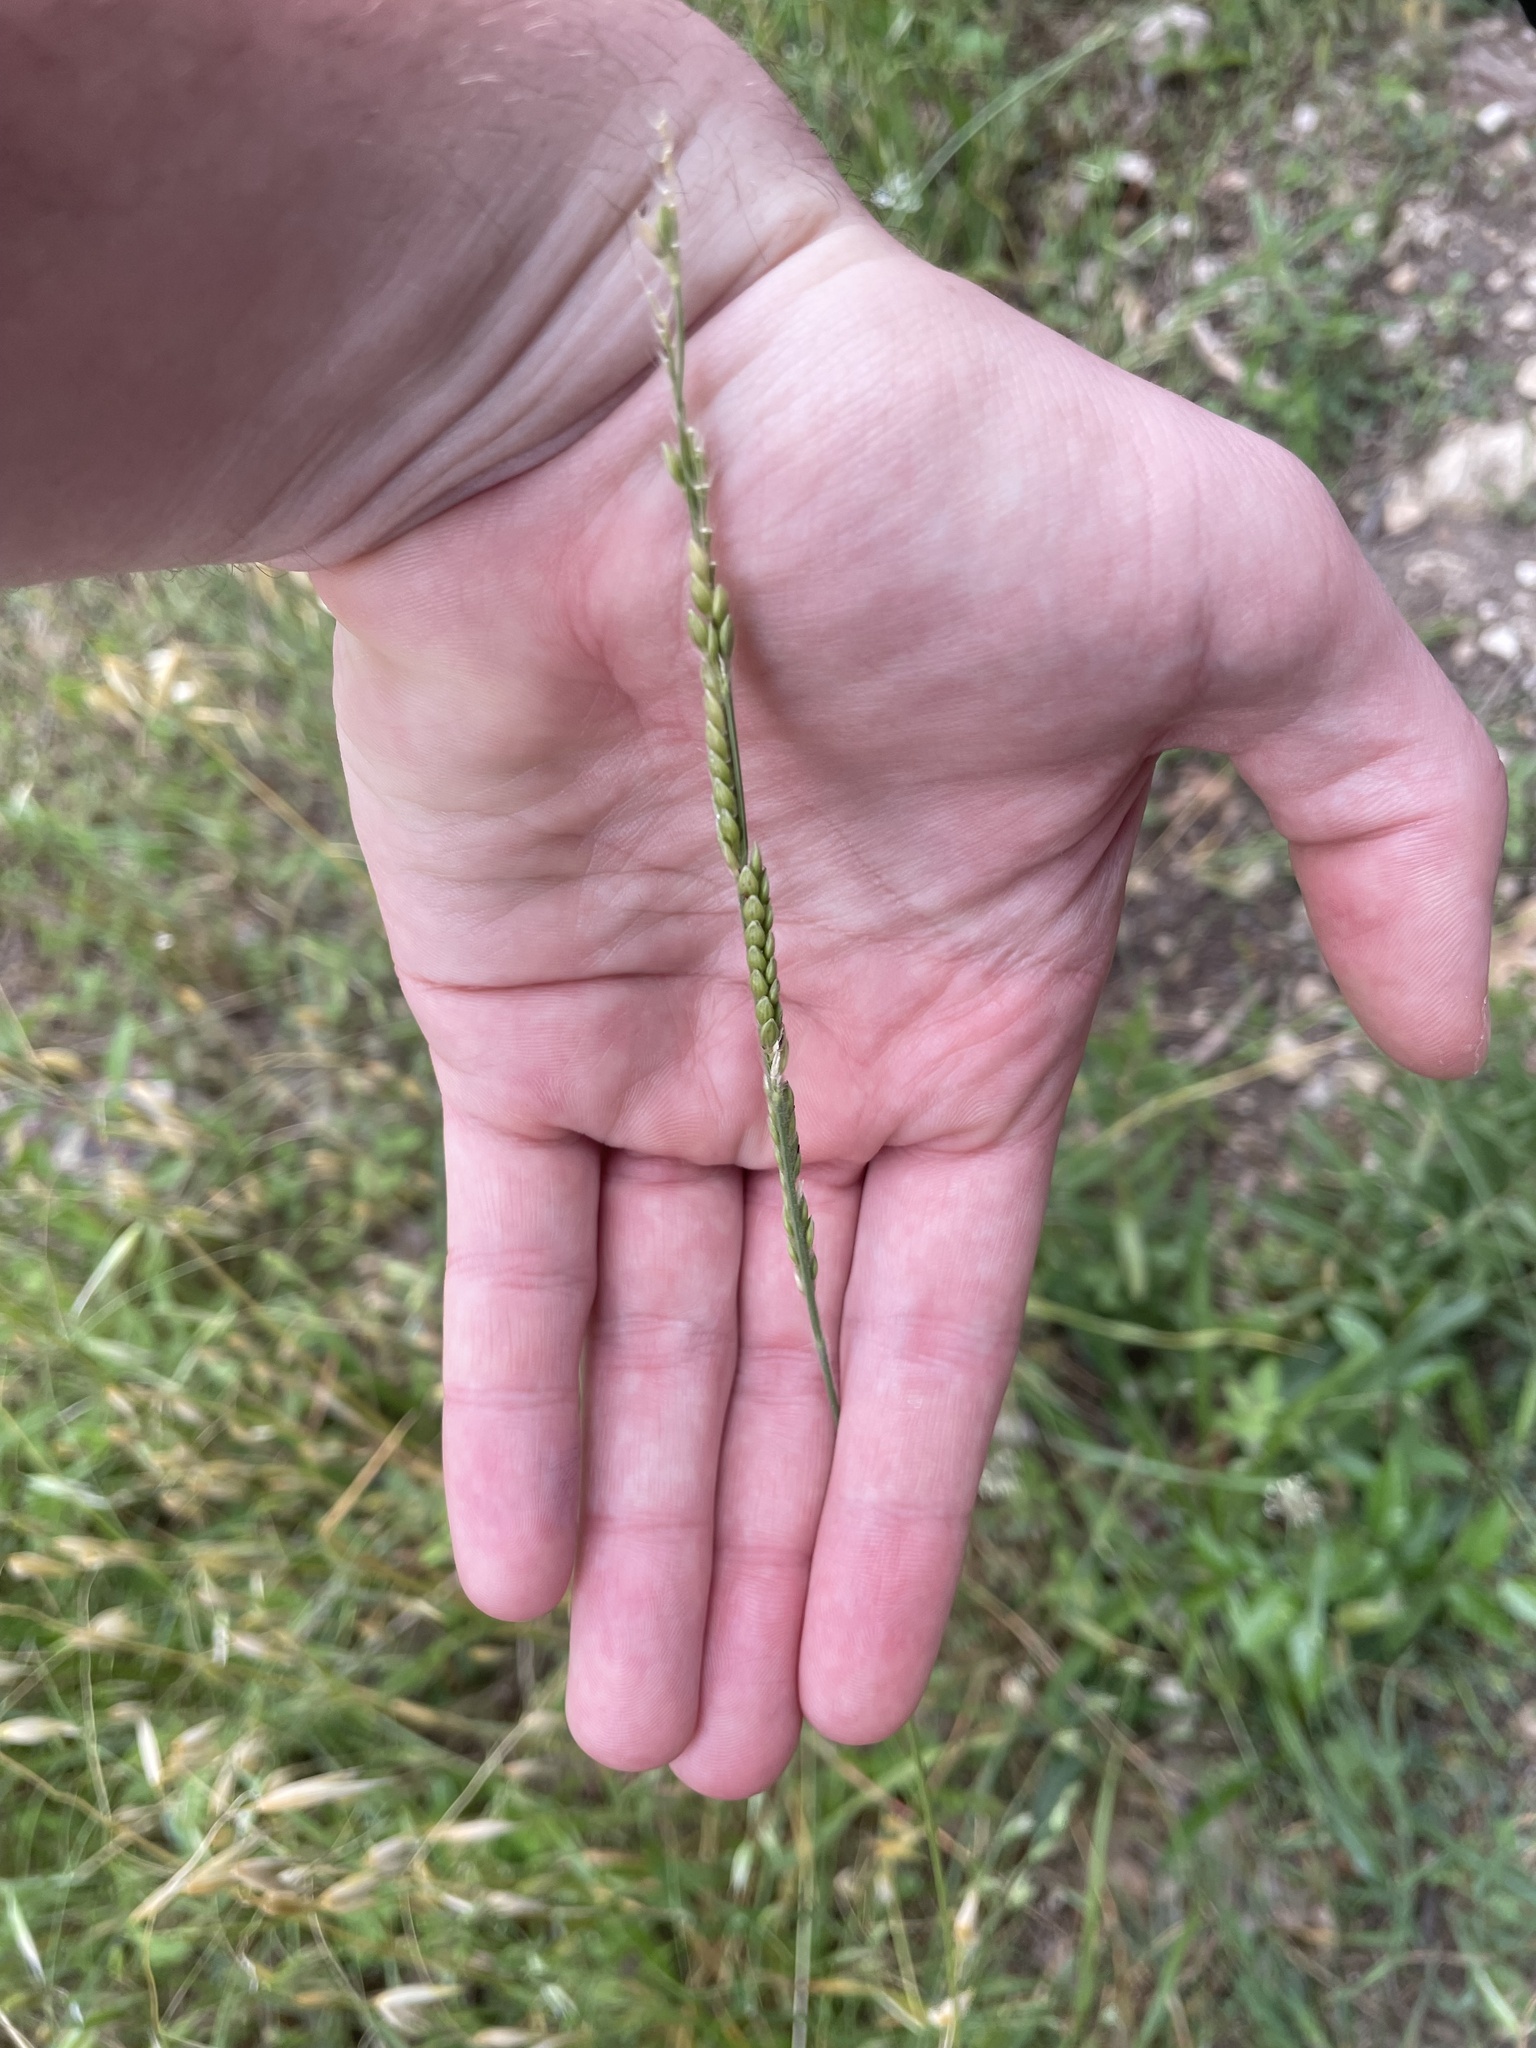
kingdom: Plantae
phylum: Tracheophyta
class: Liliopsida
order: Poales
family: Poaceae
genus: Eriochloa
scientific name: Eriochloa sericea
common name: Texas cup grass
